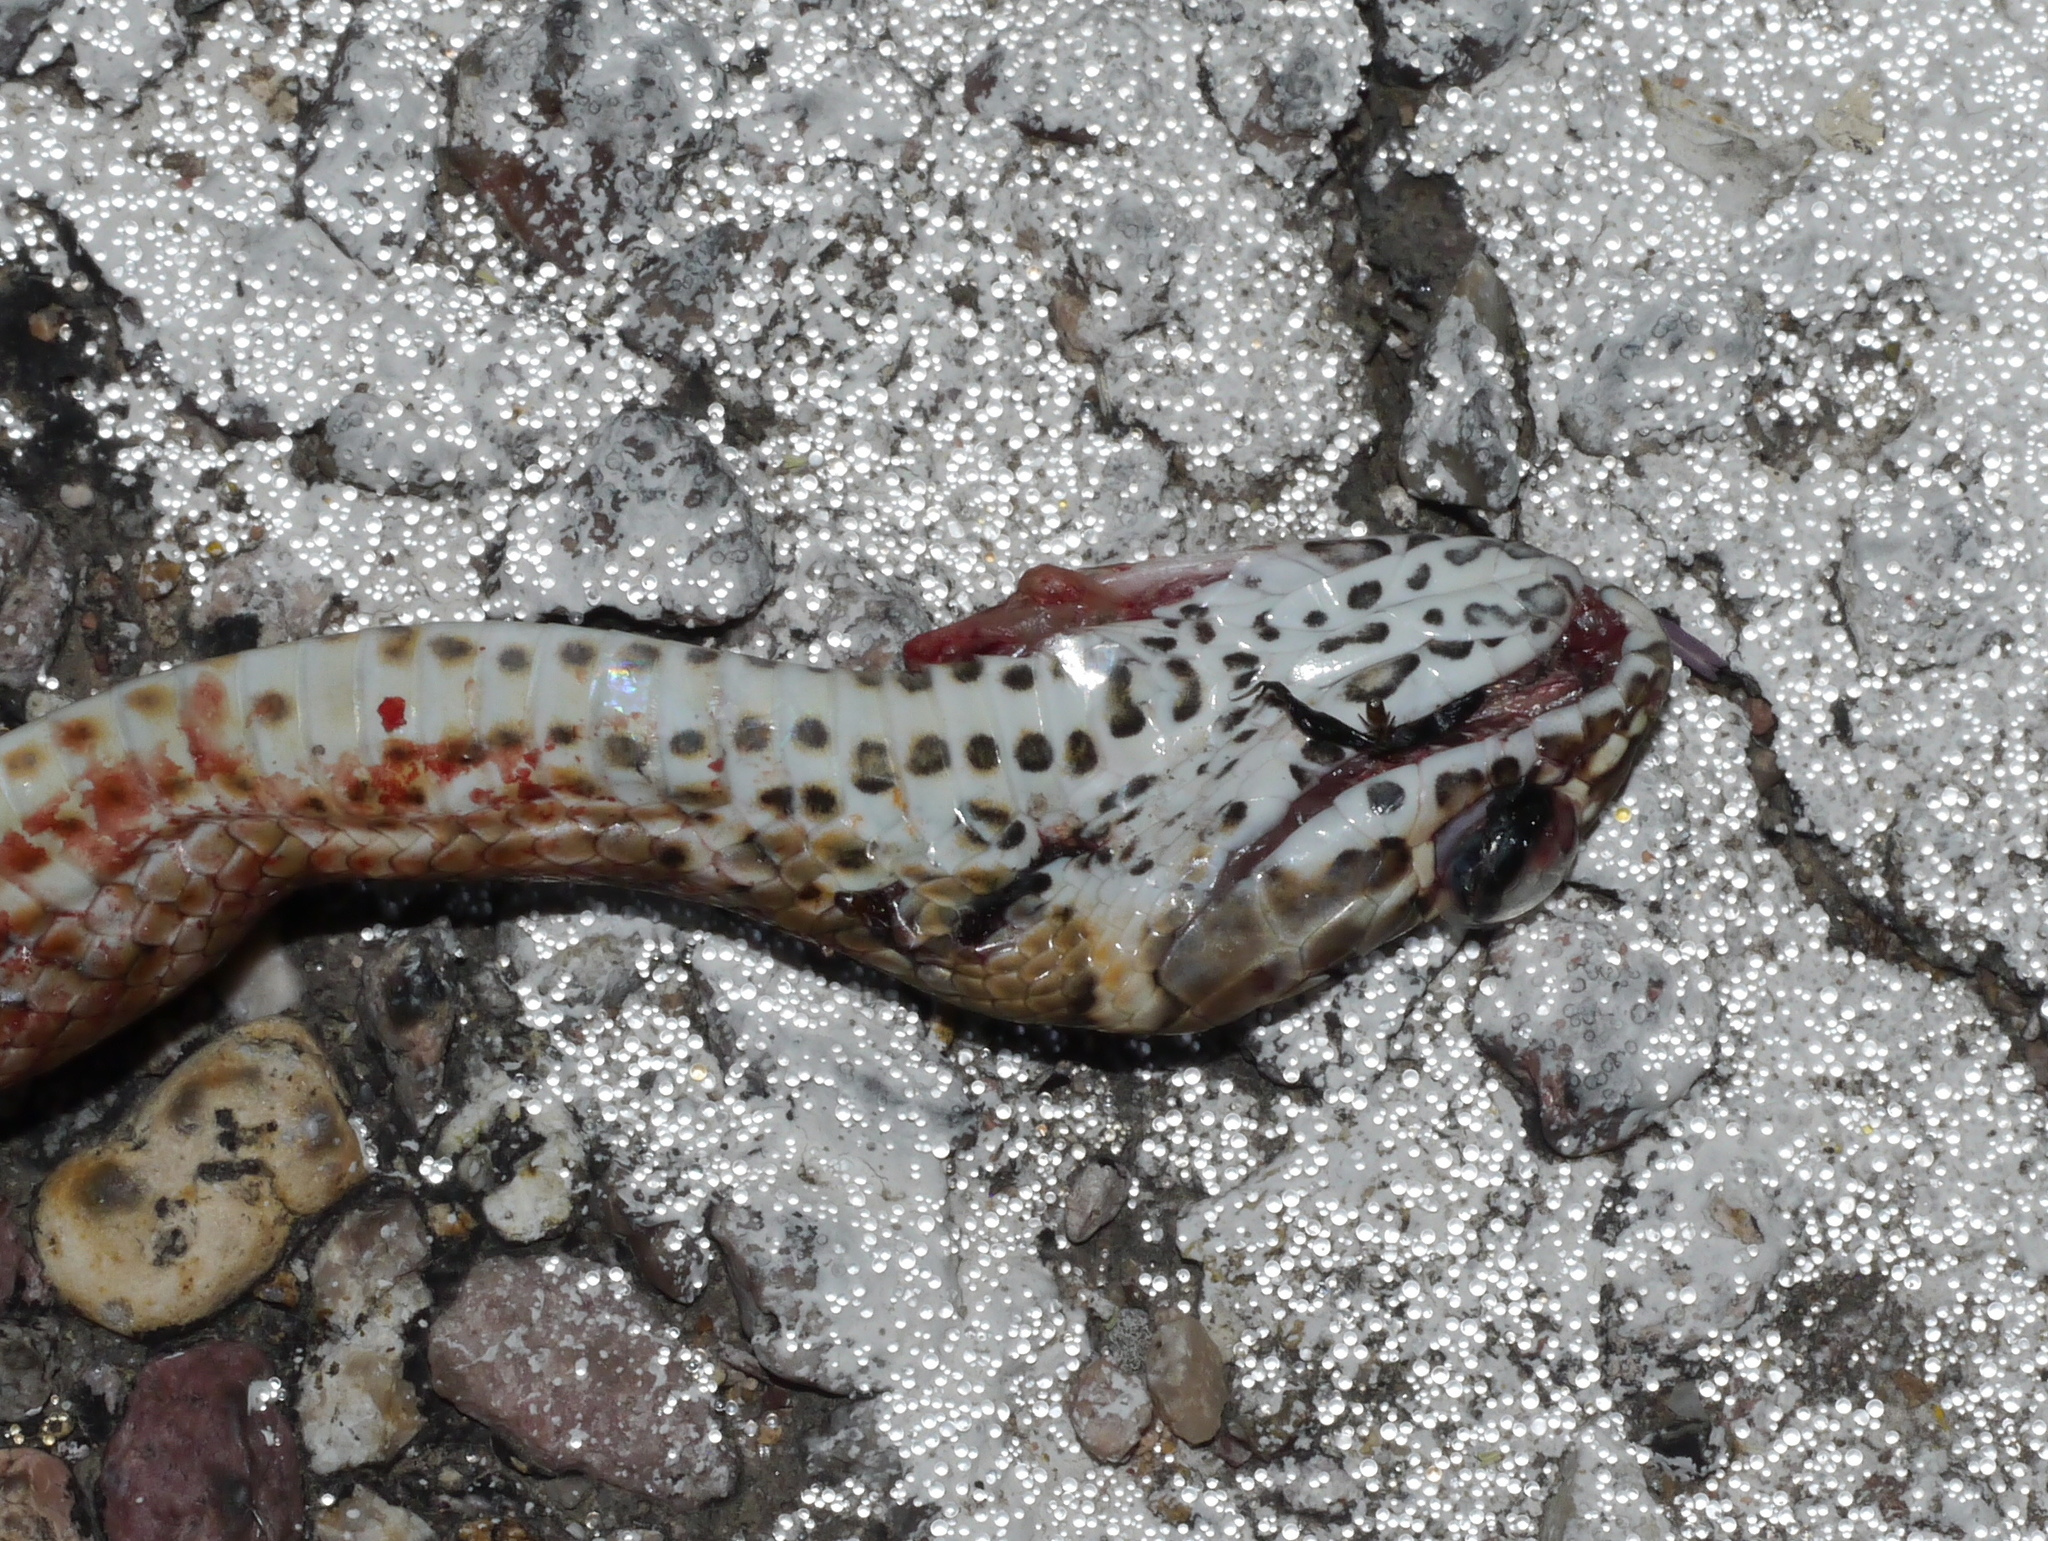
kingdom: Animalia
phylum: Chordata
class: Squamata
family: Colubridae
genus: Masticophis
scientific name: Masticophis flagellum
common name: Coachwhip
